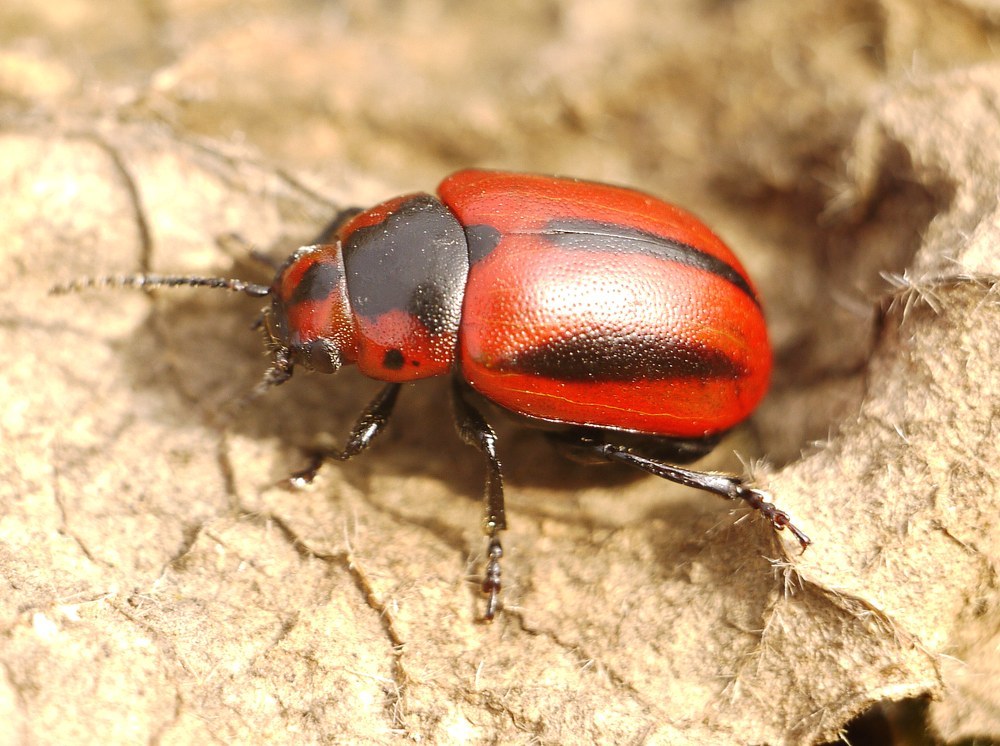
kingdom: Animalia
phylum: Arthropoda
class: Insecta
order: Coleoptera
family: Chrysomelidae
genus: Entomoscelis
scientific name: Entomoscelis adonidis
